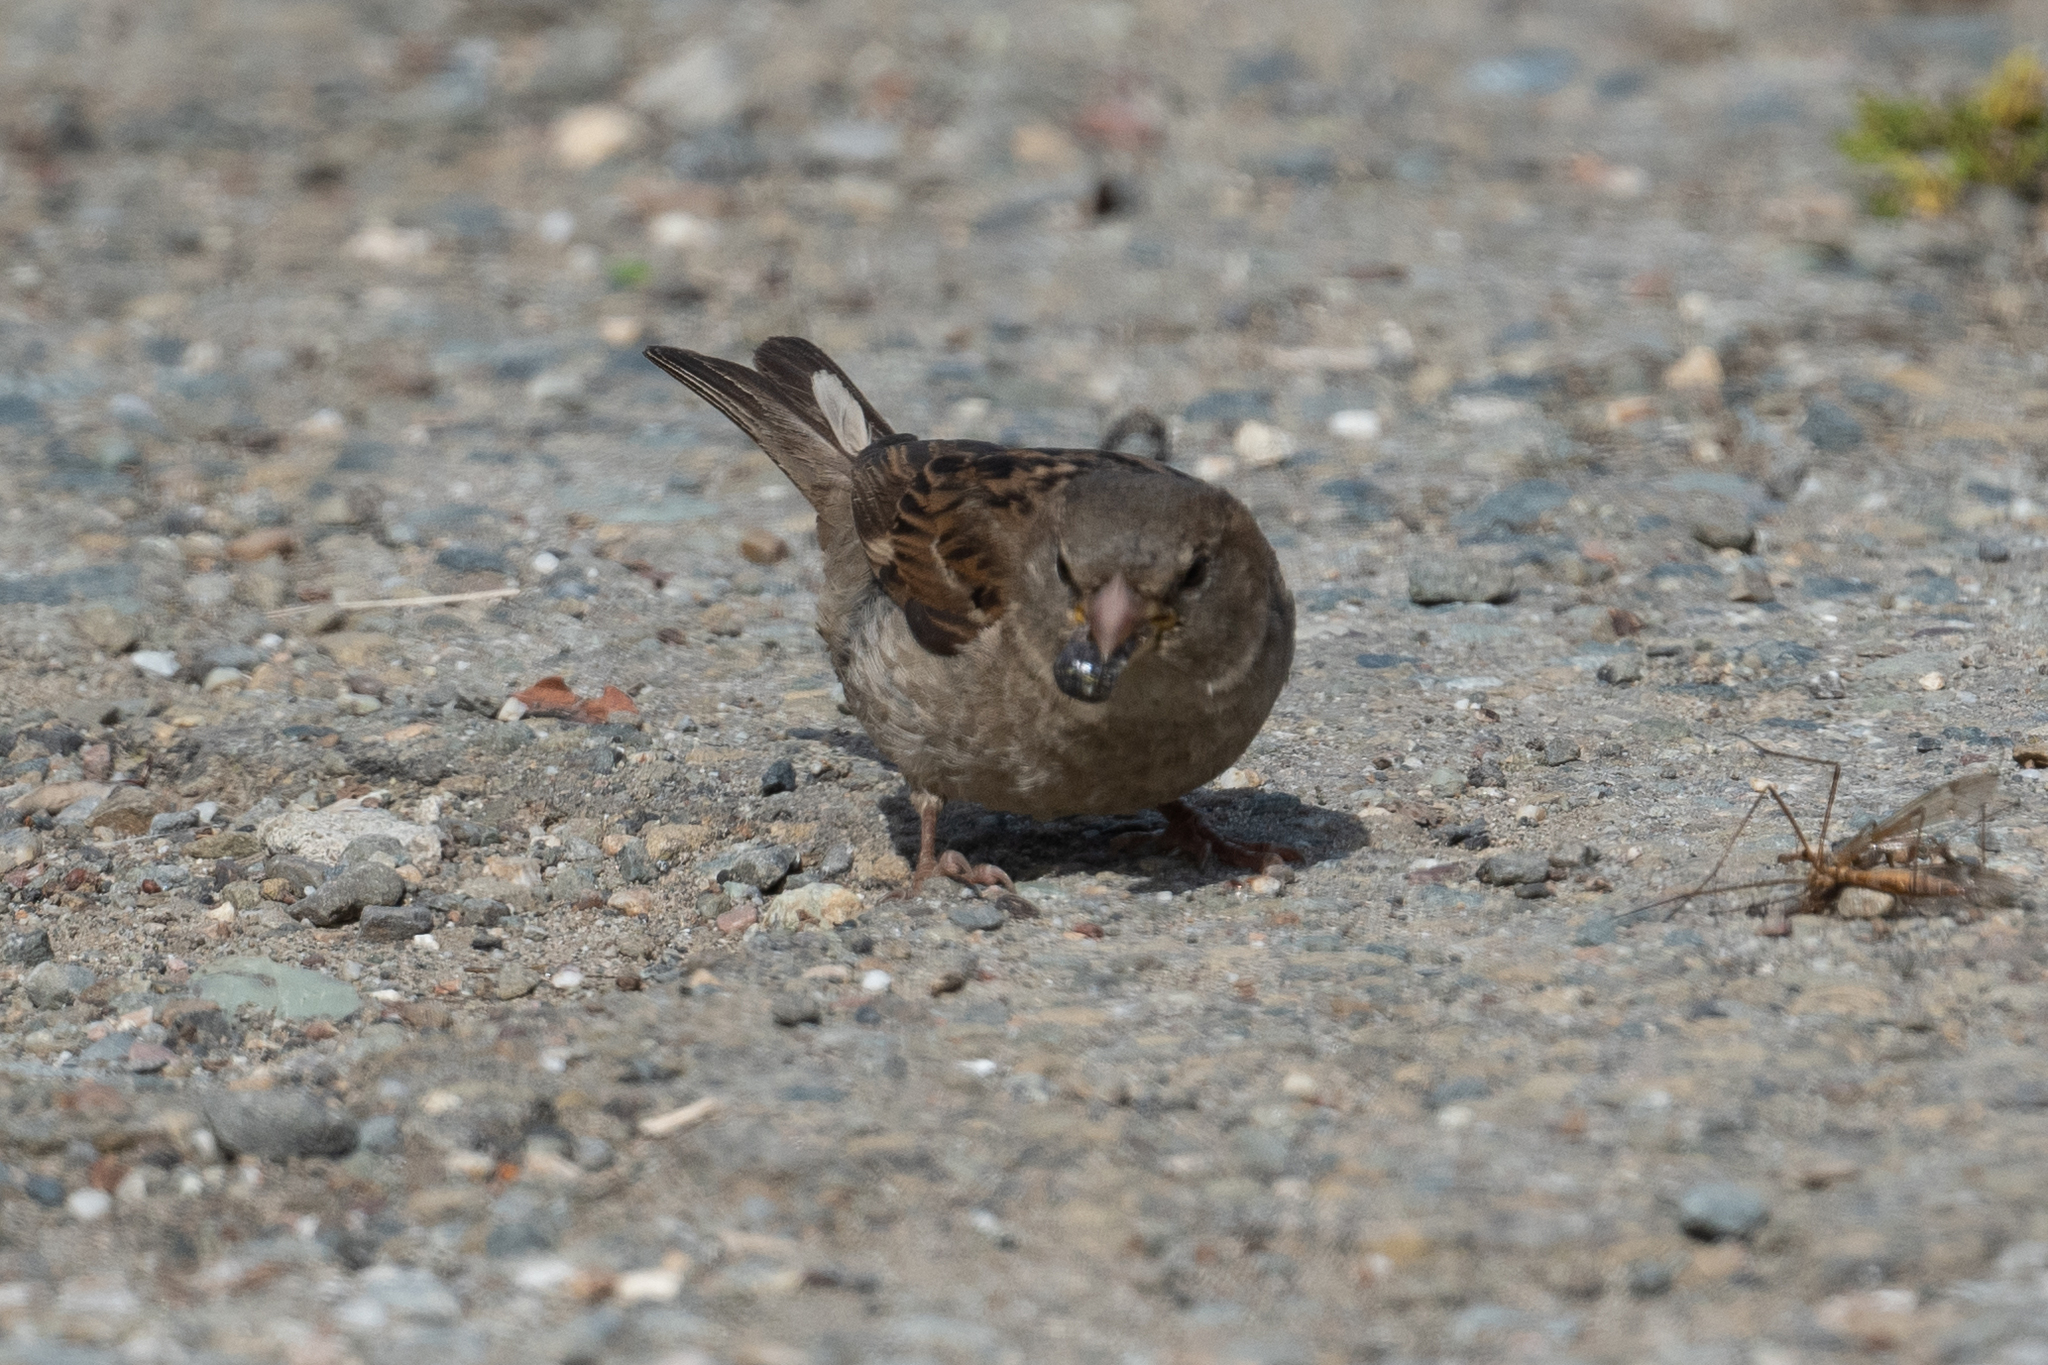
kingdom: Animalia
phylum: Chordata
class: Aves
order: Passeriformes
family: Passeridae
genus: Passer
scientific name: Passer domesticus
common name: House sparrow
